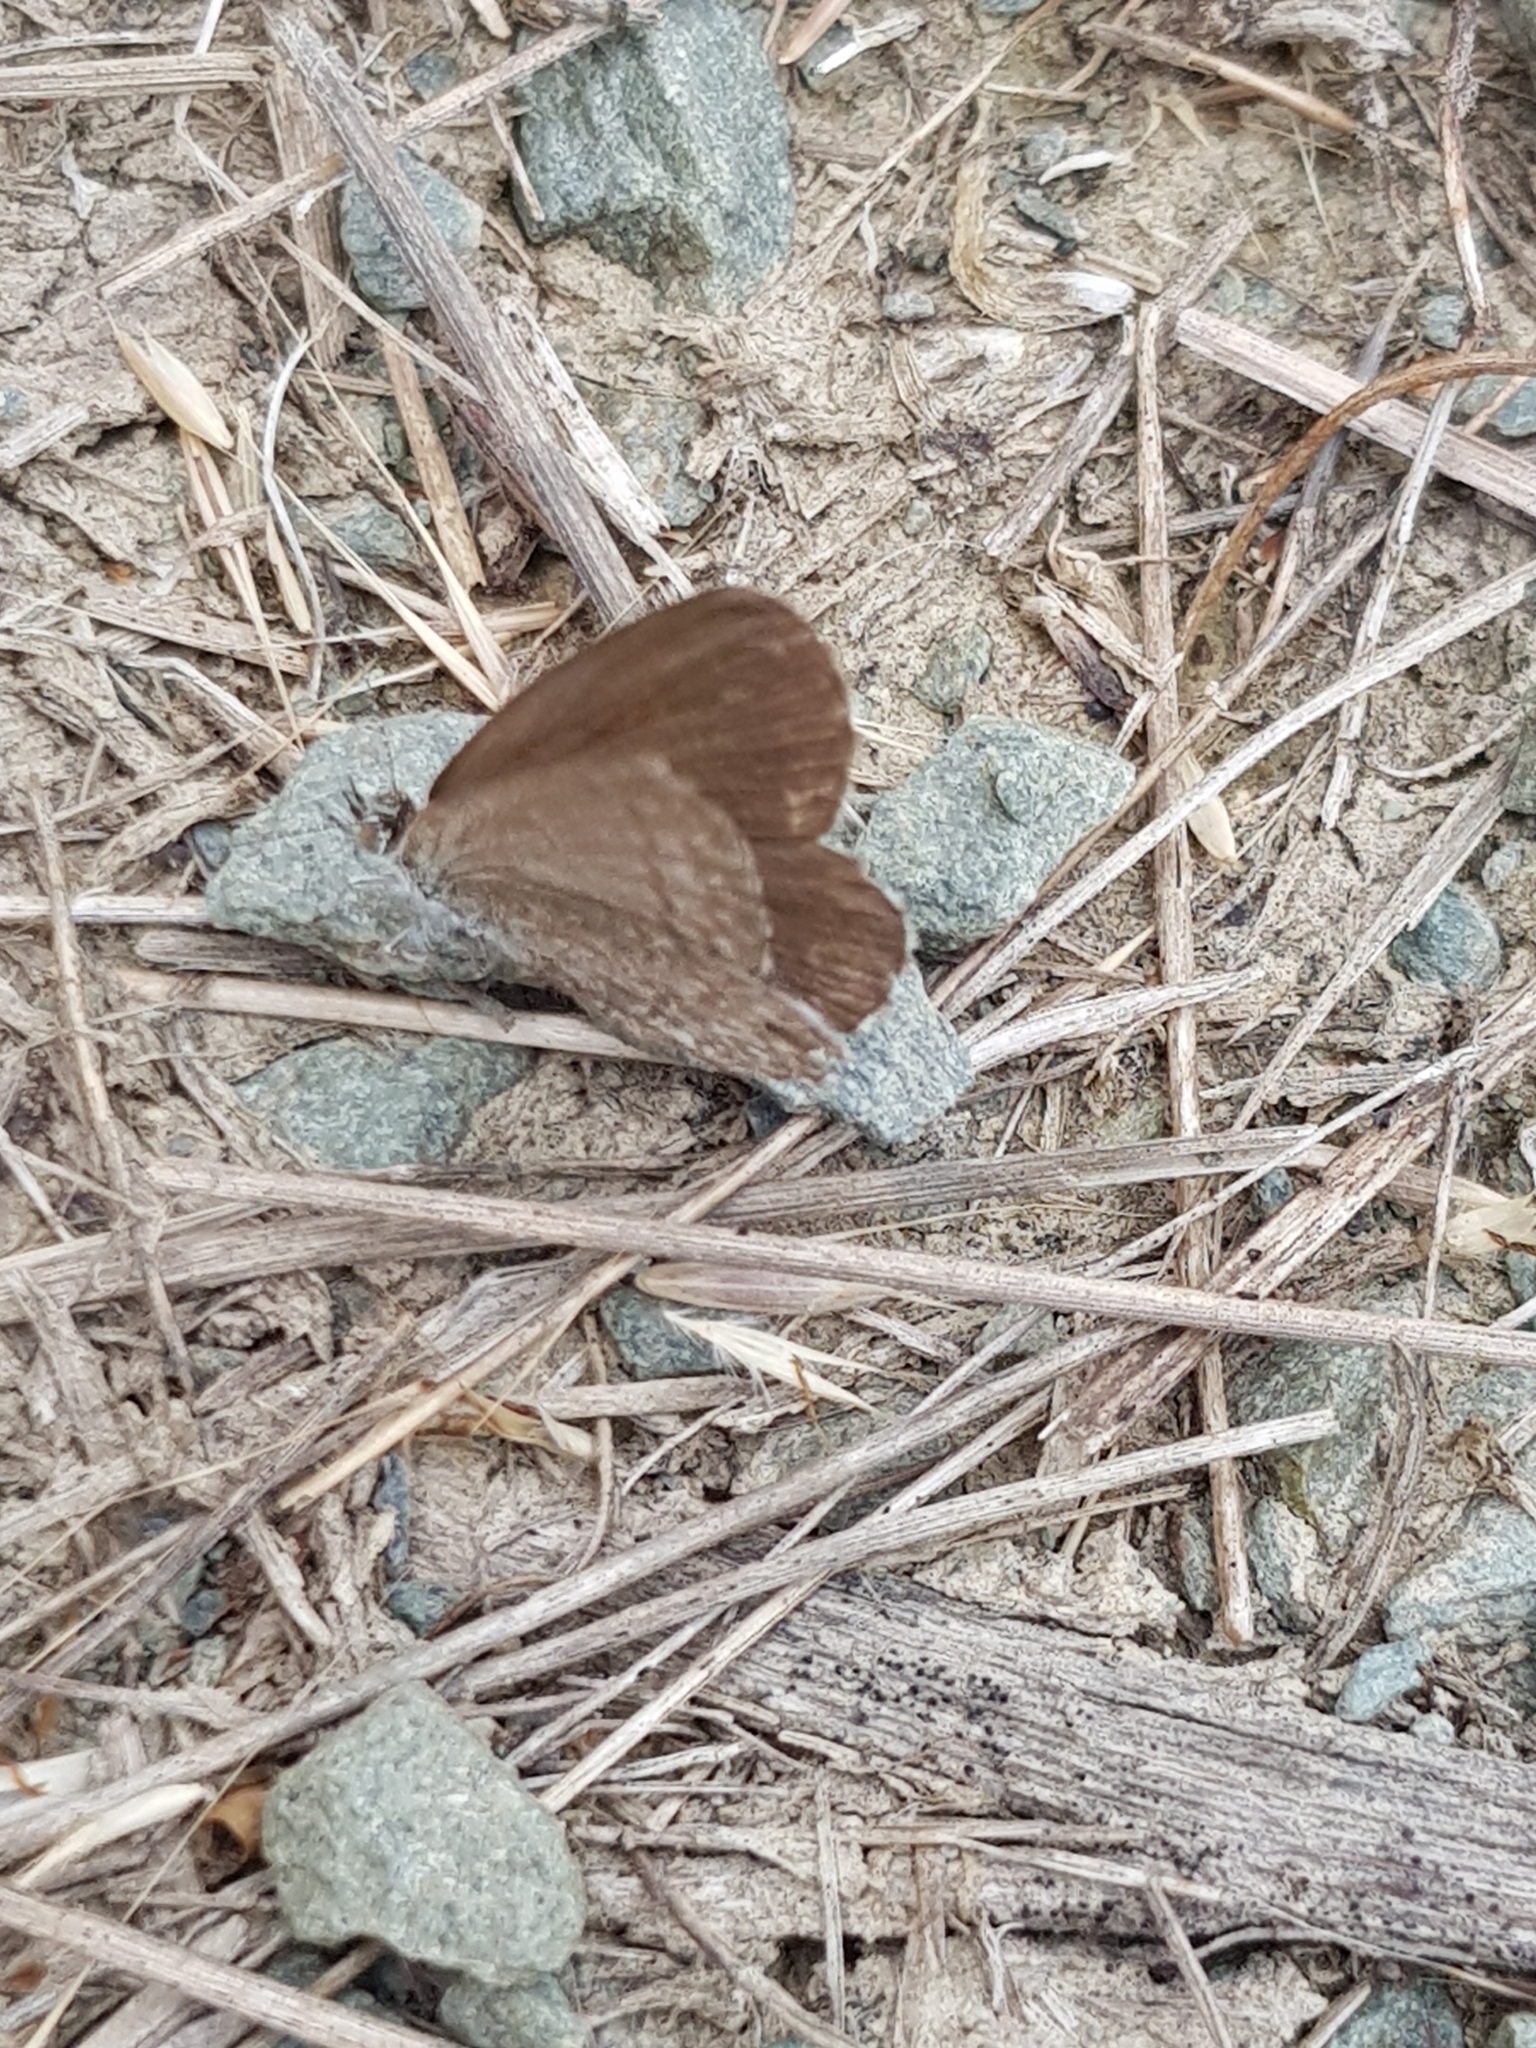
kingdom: Animalia
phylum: Arthropoda
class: Insecta
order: Lepidoptera
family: Lycaenidae
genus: Zizina
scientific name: Zizina labradus
